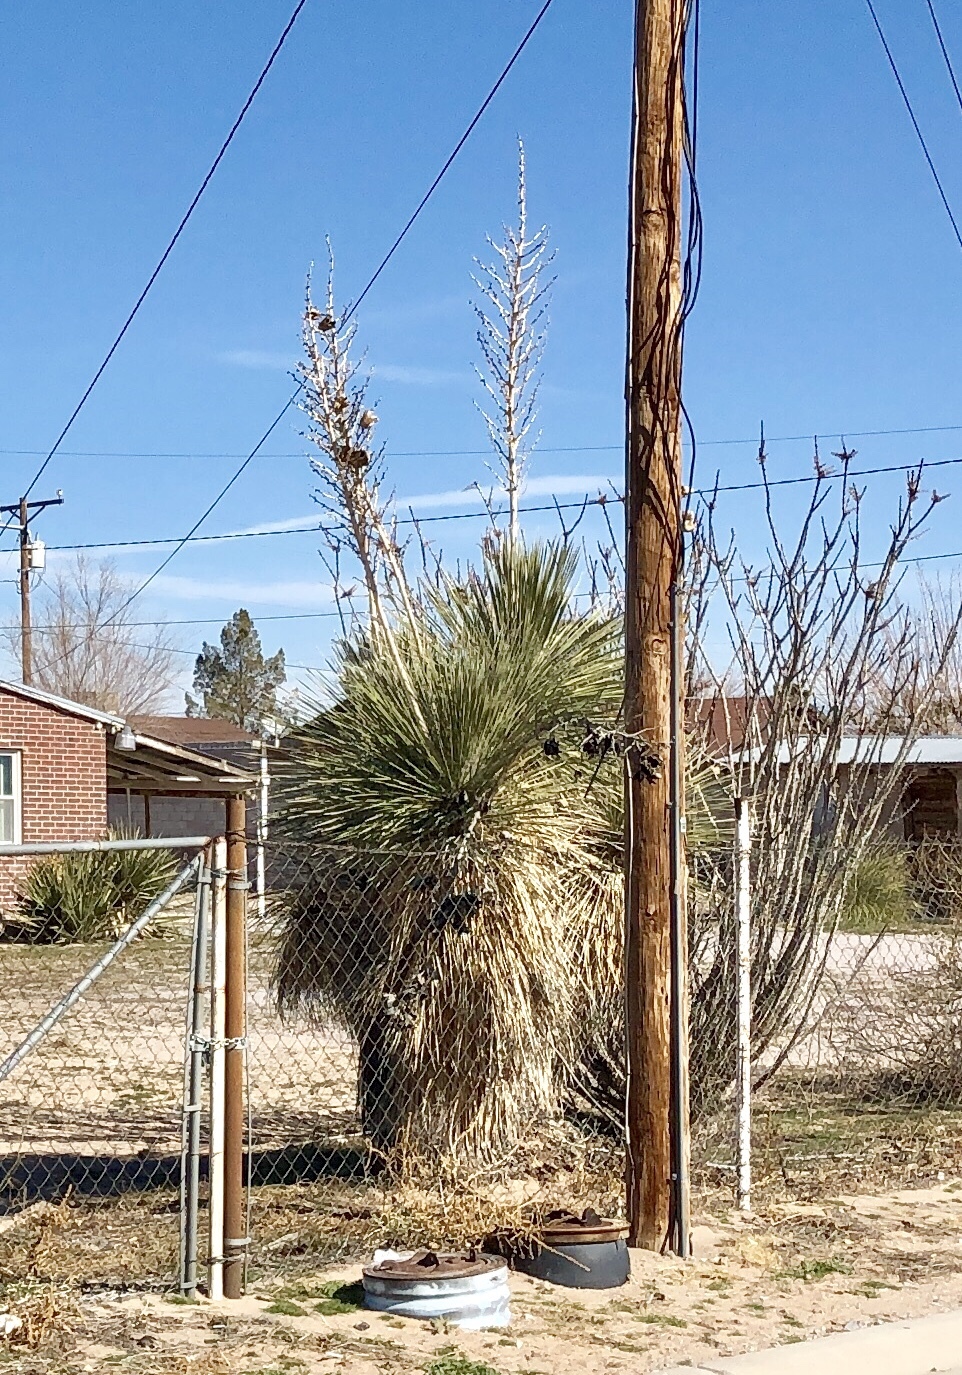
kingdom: Plantae
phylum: Tracheophyta
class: Liliopsida
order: Asparagales
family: Asparagaceae
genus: Yucca
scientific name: Yucca elata
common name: Palmella
